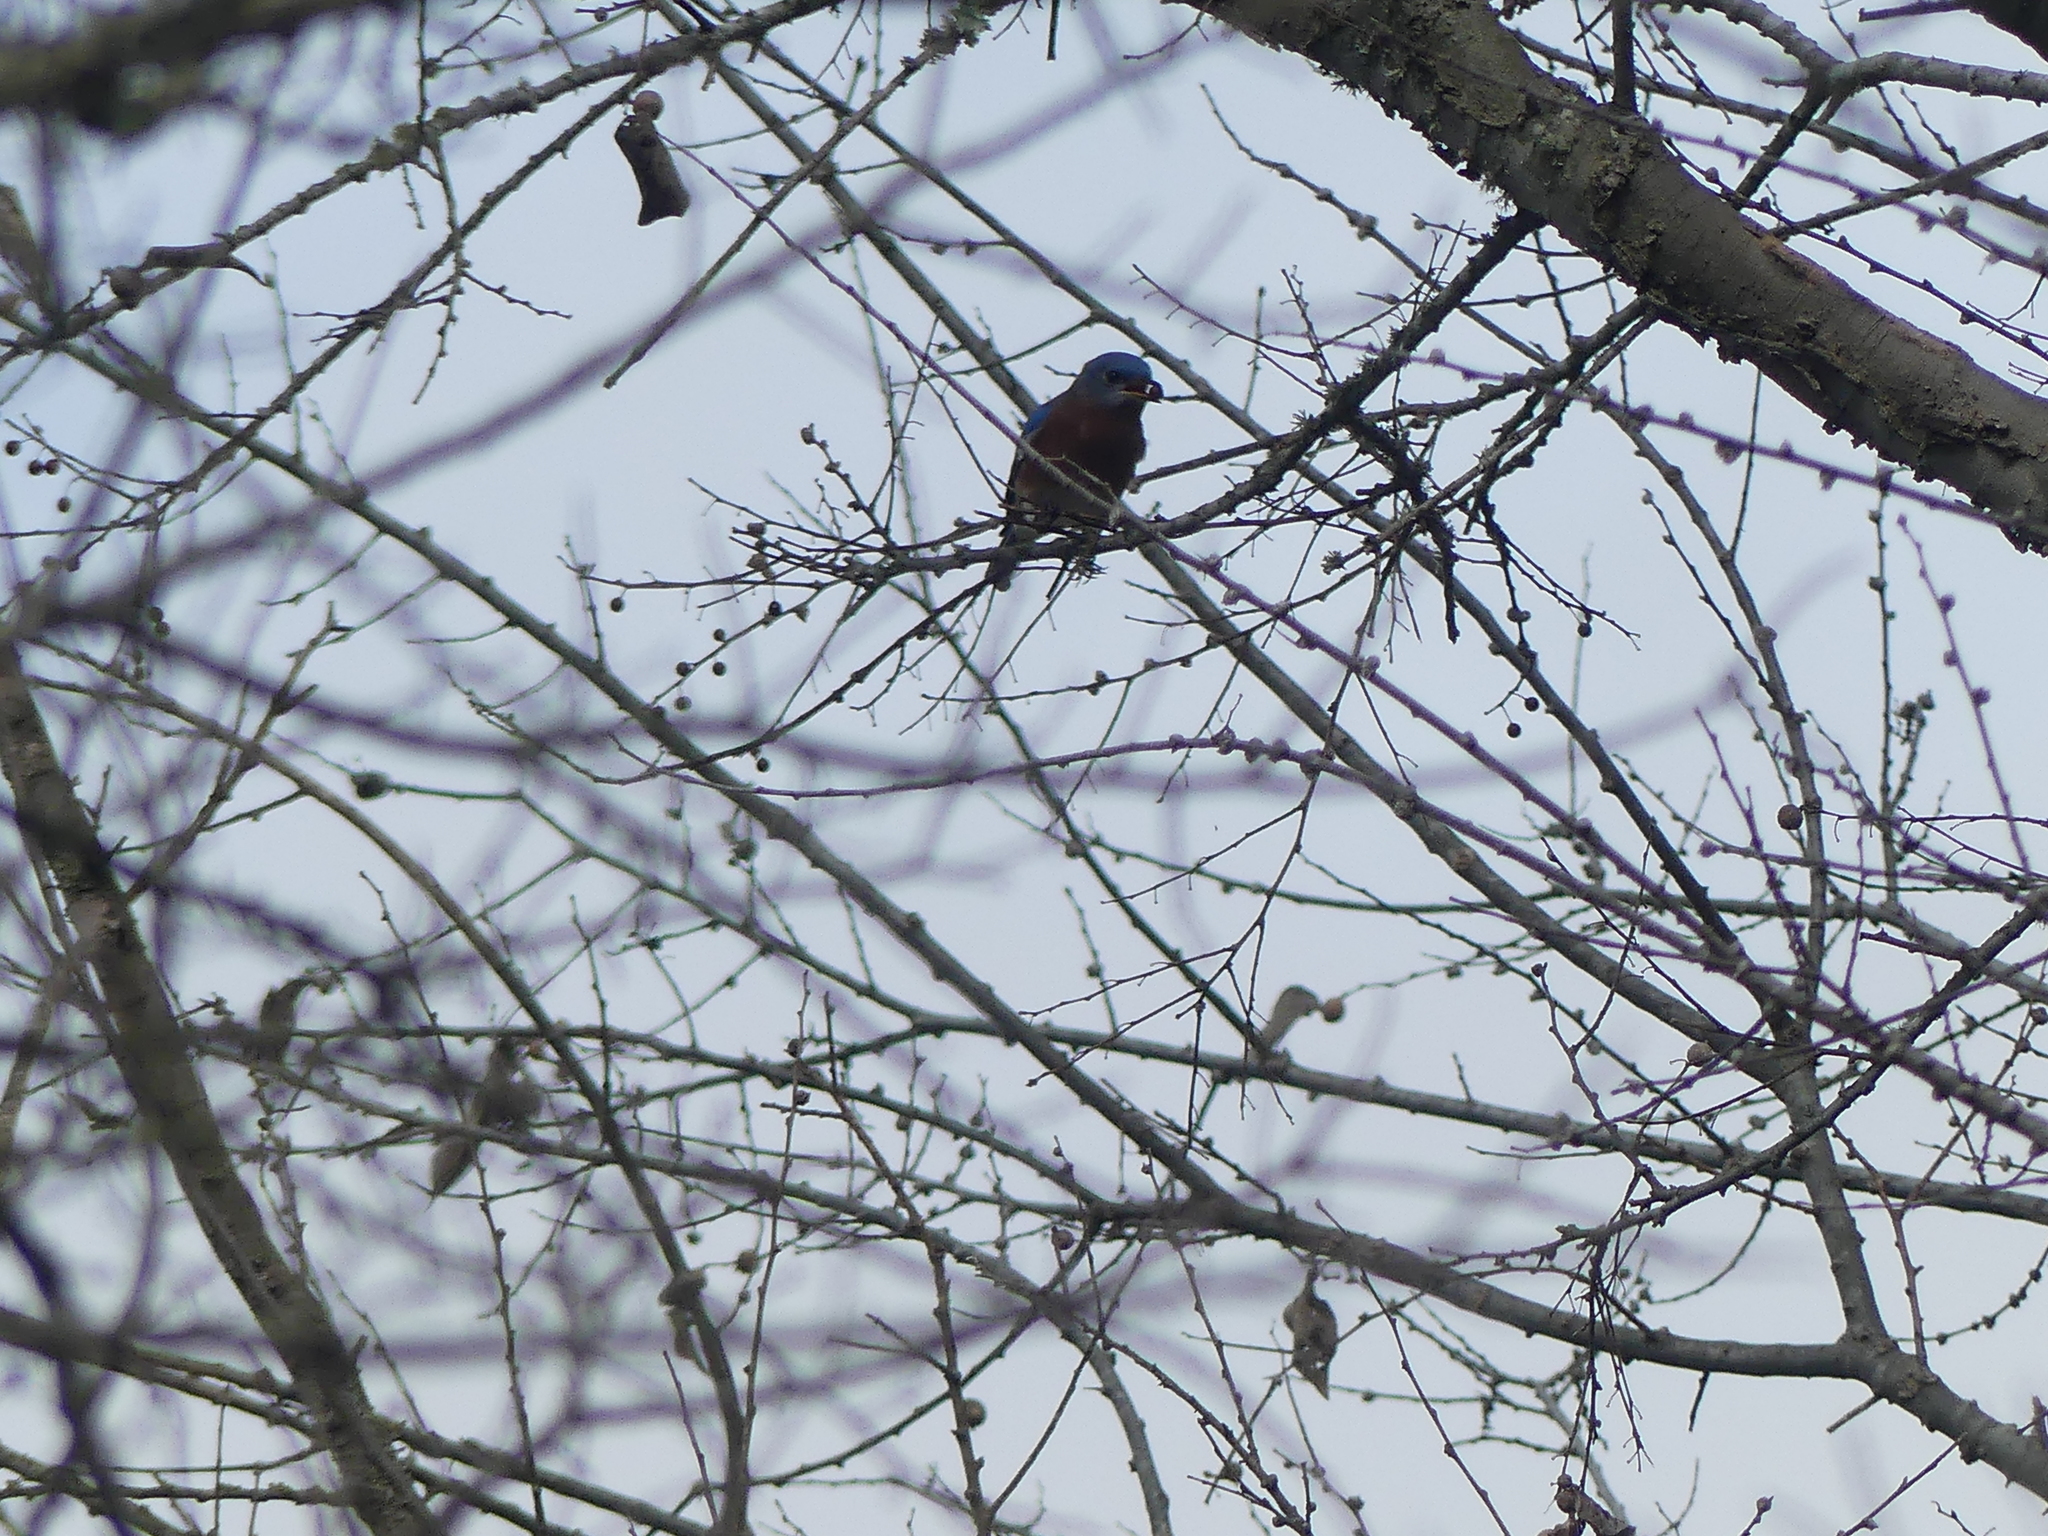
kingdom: Animalia
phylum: Chordata
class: Aves
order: Passeriformes
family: Turdidae
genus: Sialia
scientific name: Sialia sialis
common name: Eastern bluebird
